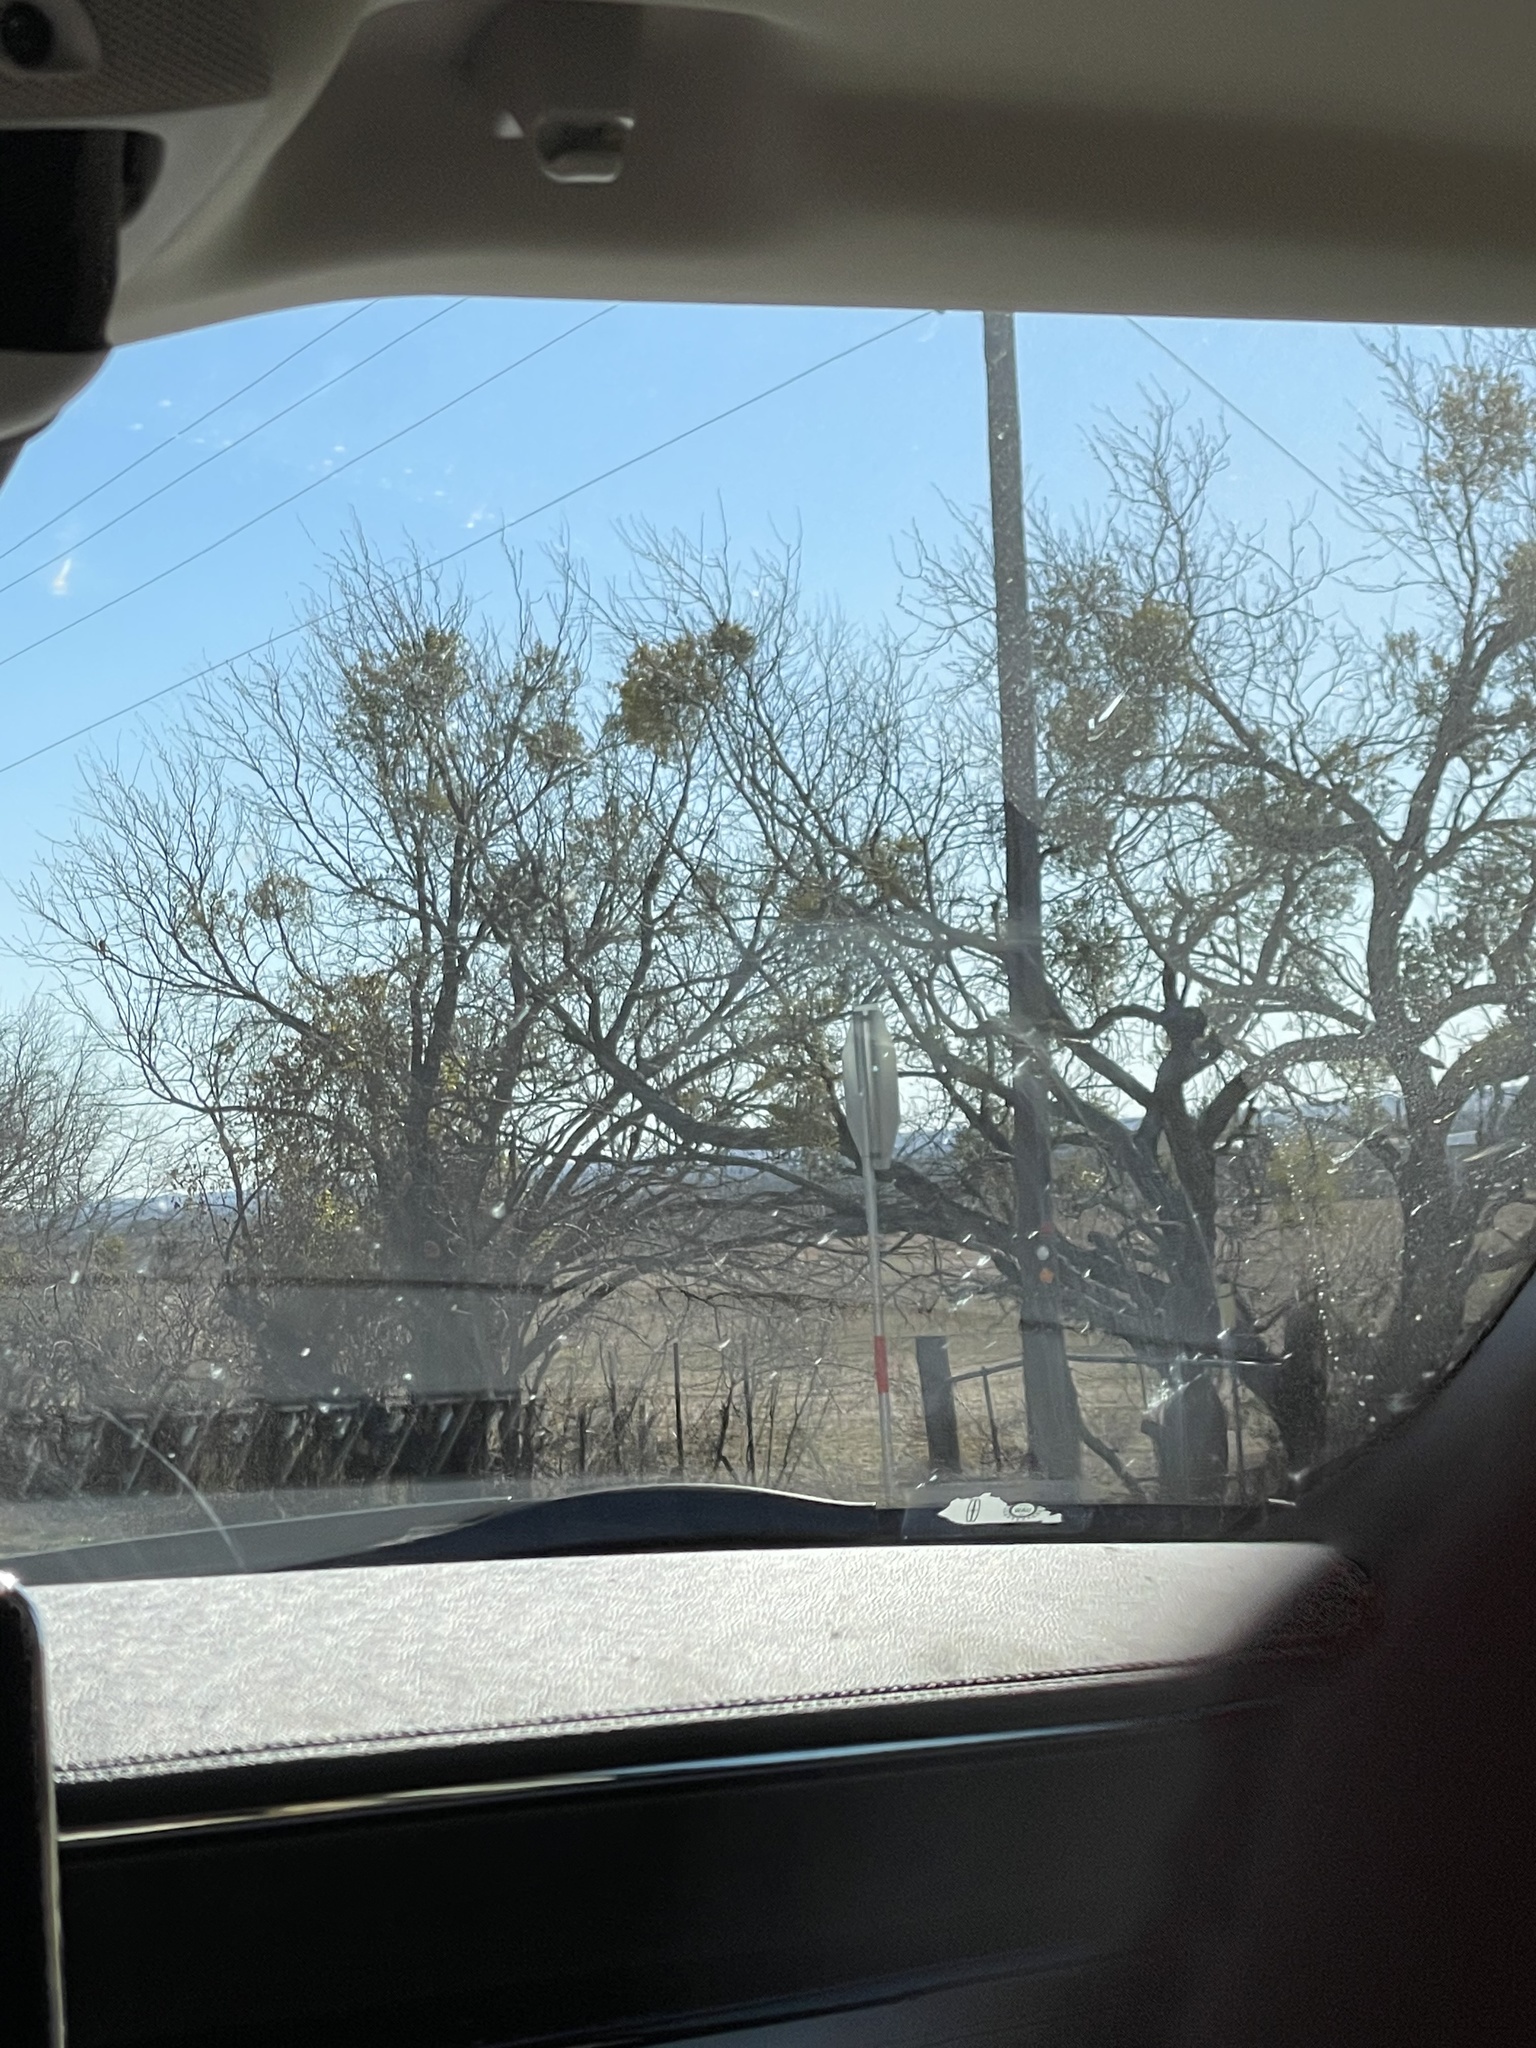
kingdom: Plantae
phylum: Tracheophyta
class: Magnoliopsida
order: Fabales
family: Fabaceae
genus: Prosopis
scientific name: Prosopis glandulosa
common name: Honey mesquite
